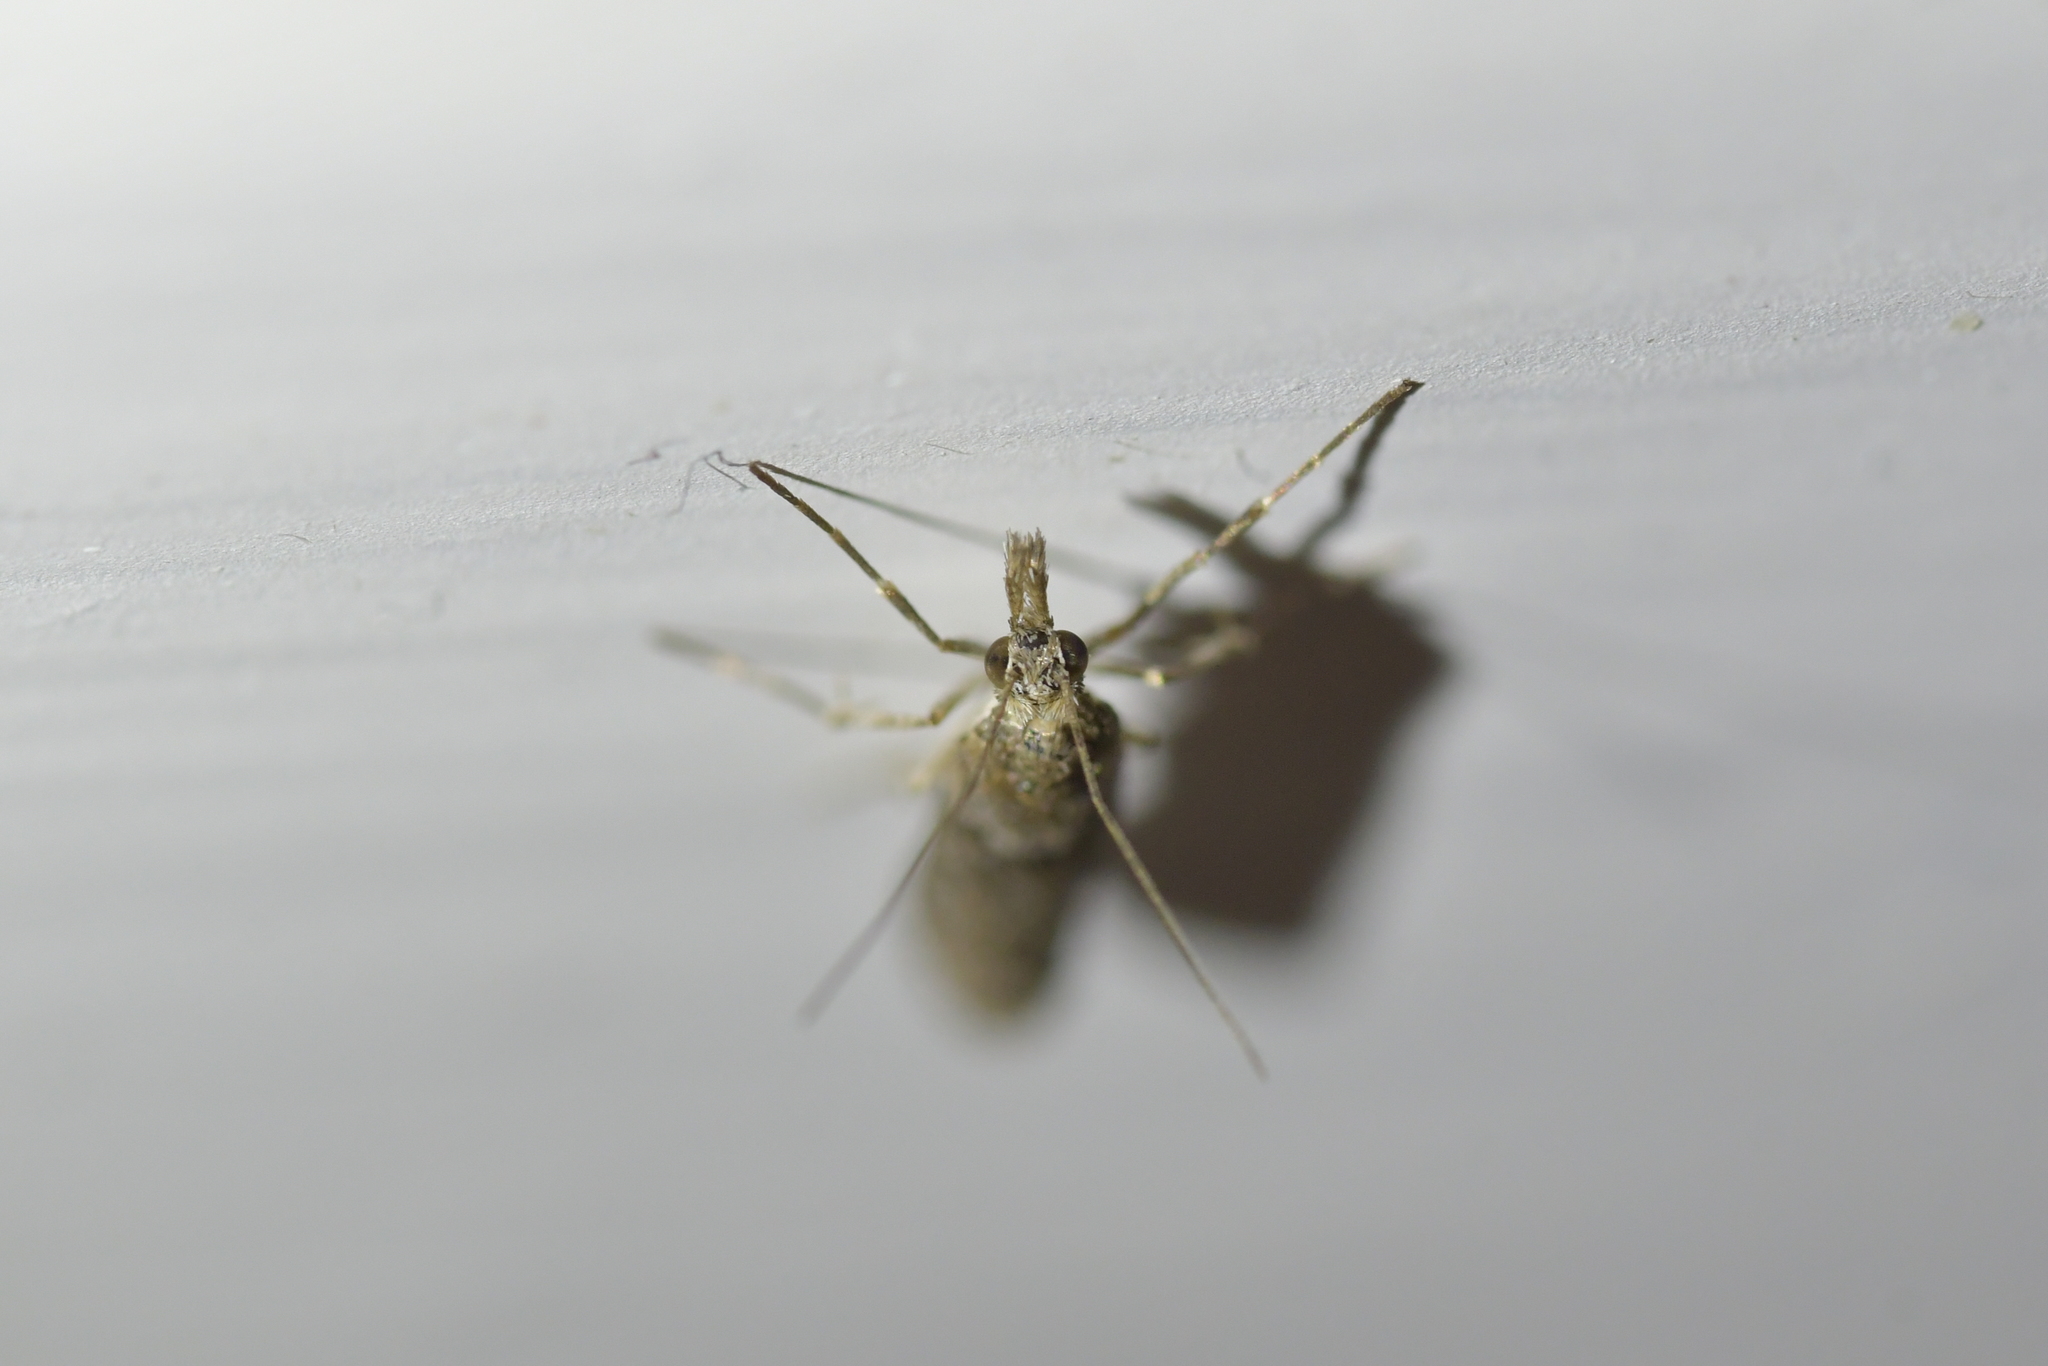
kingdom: Animalia
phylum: Arthropoda
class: Insecta
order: Lepidoptera
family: Crambidae
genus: Eudonia
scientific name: Eudonia leptalea
